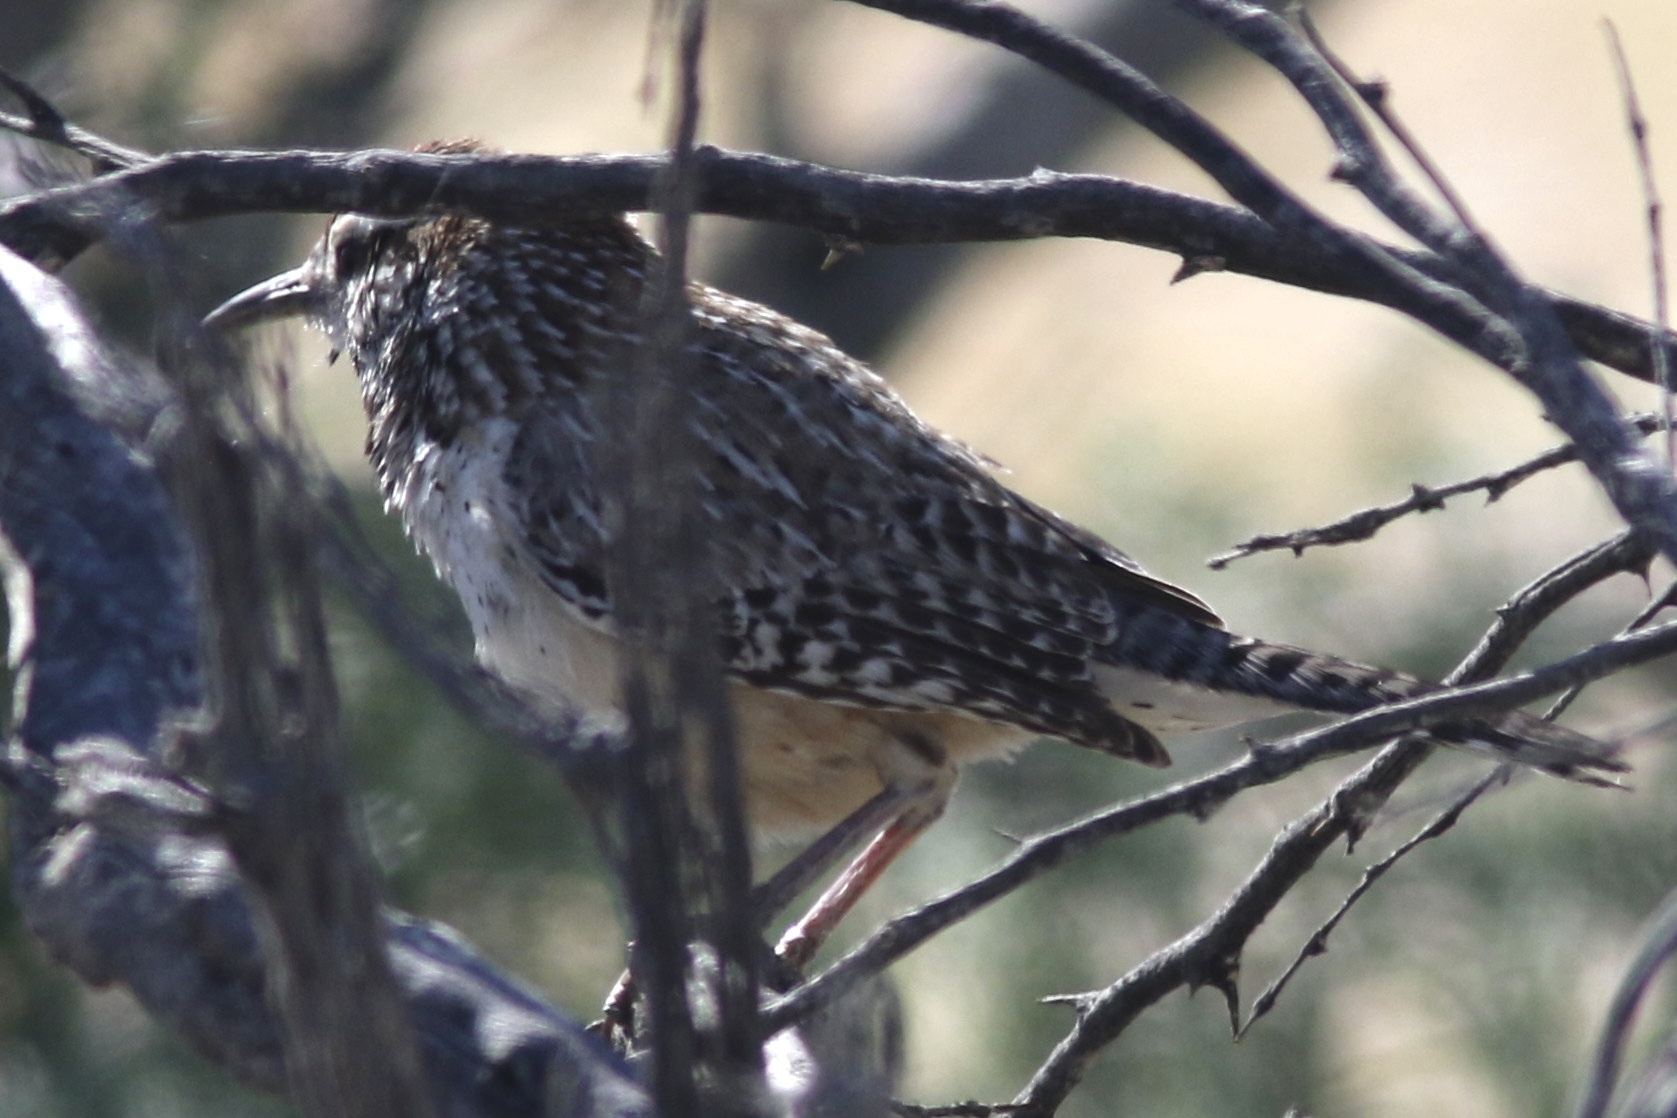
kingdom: Animalia
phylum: Chordata
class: Aves
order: Passeriformes
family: Troglodytidae
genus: Campylorhynchus
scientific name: Campylorhynchus brunneicapillus
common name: Cactus wren
